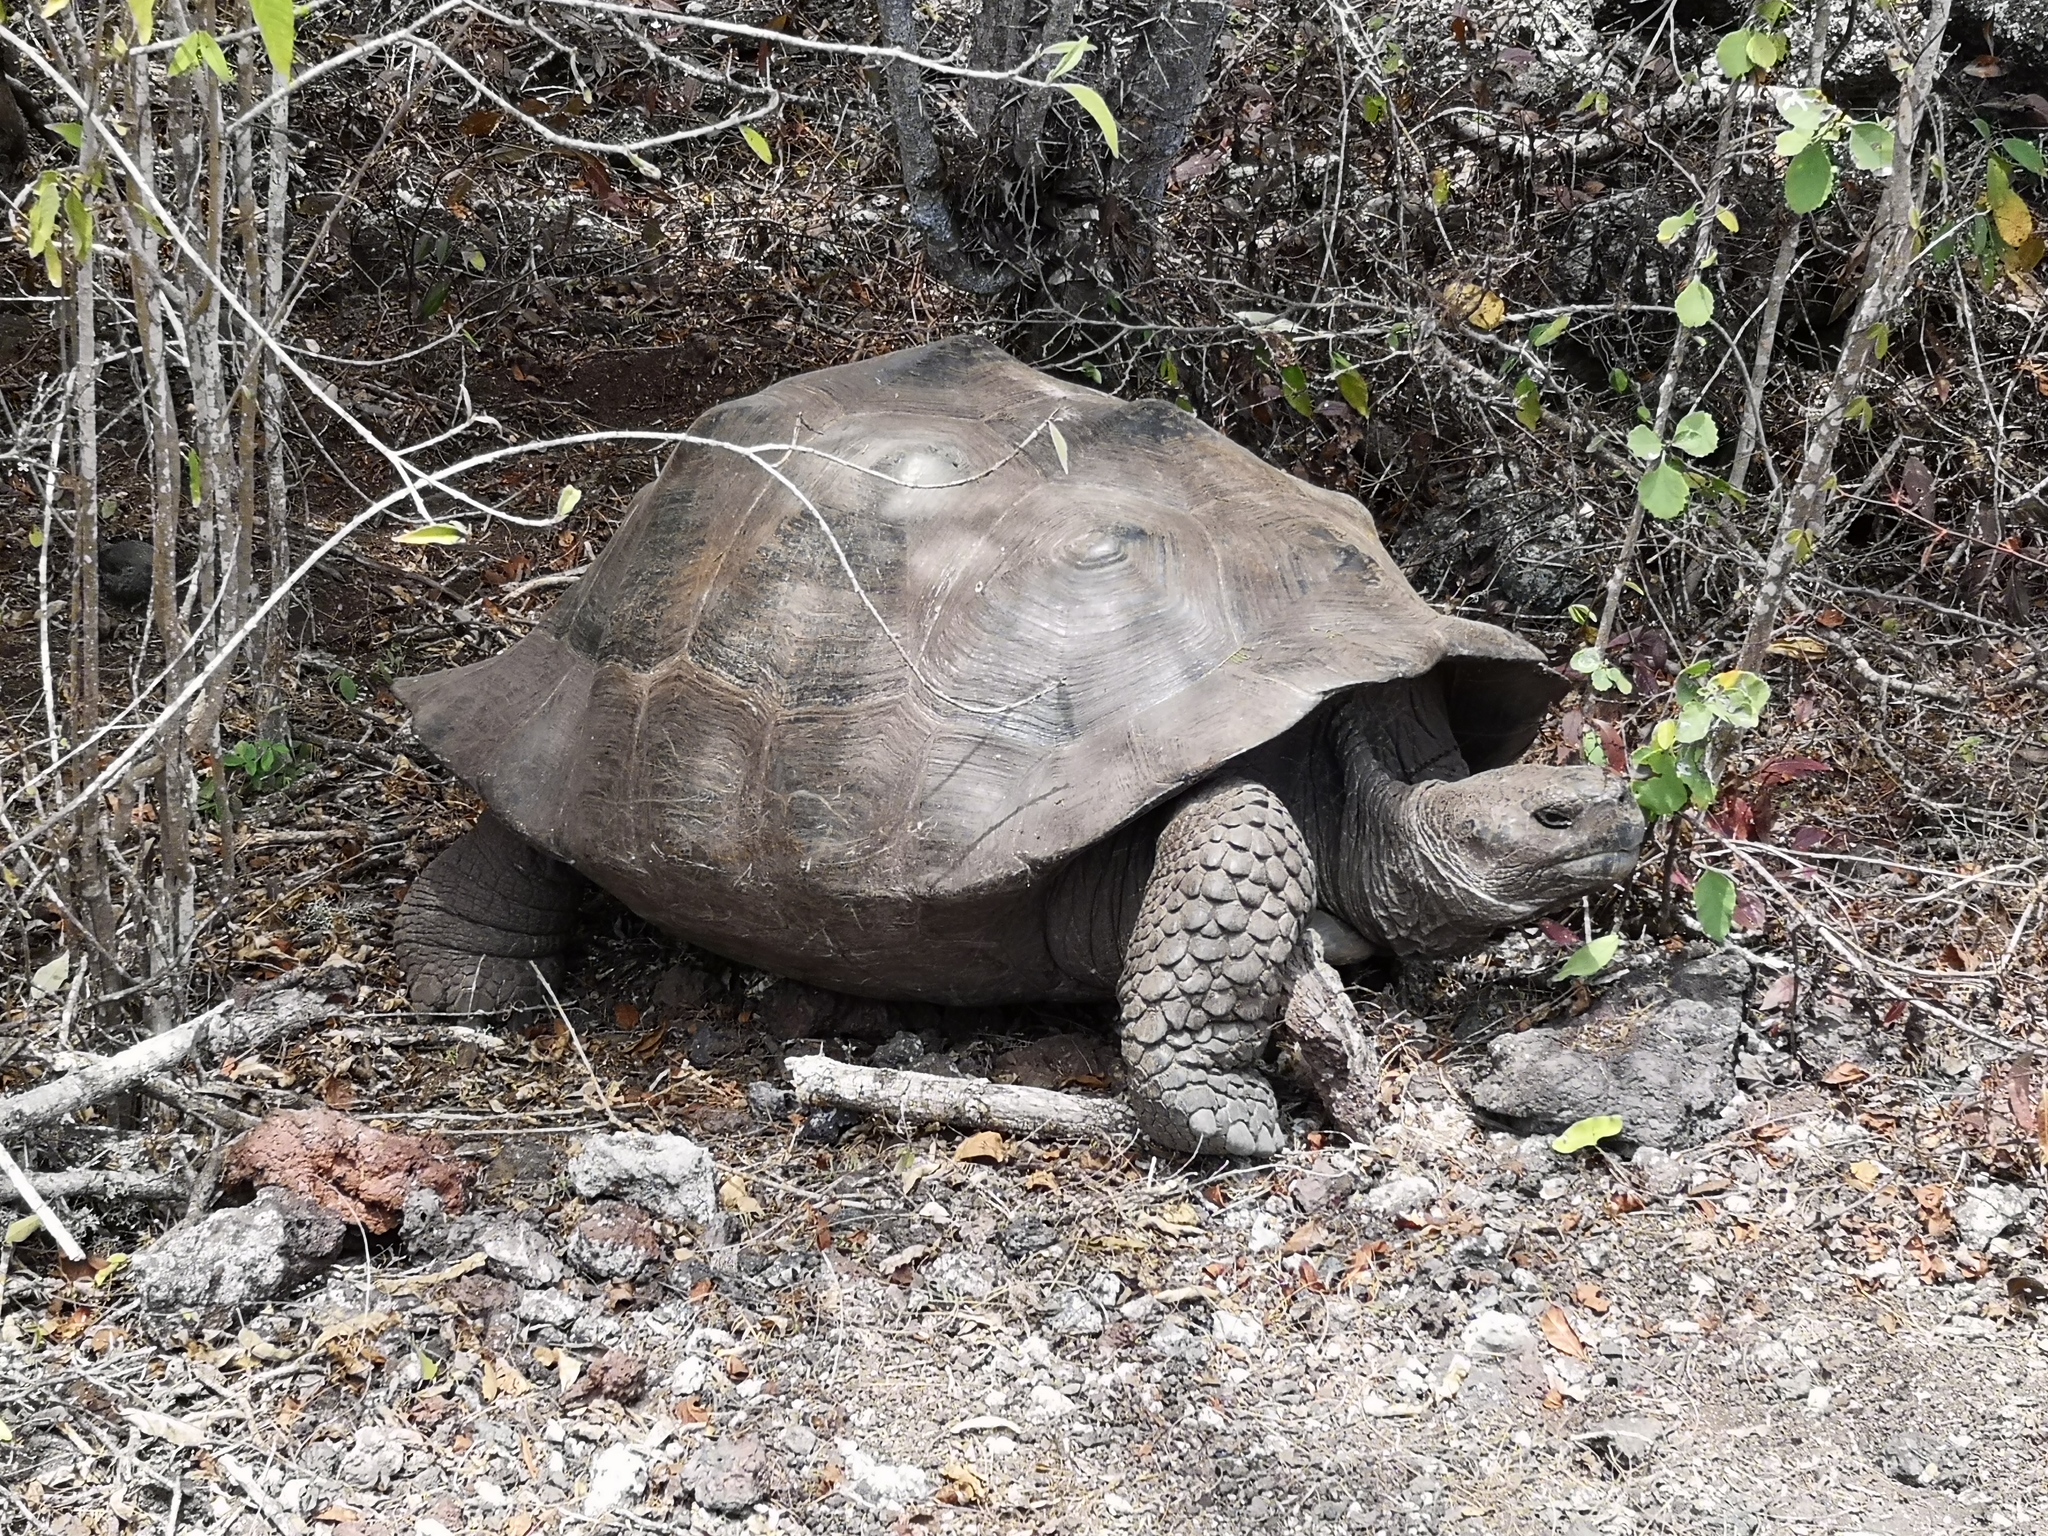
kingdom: Animalia
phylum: Chordata
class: Testudines
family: Testudinidae
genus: Chelonoidis
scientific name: Chelonoidis guntheri
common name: Sierra negra giant tortoise
